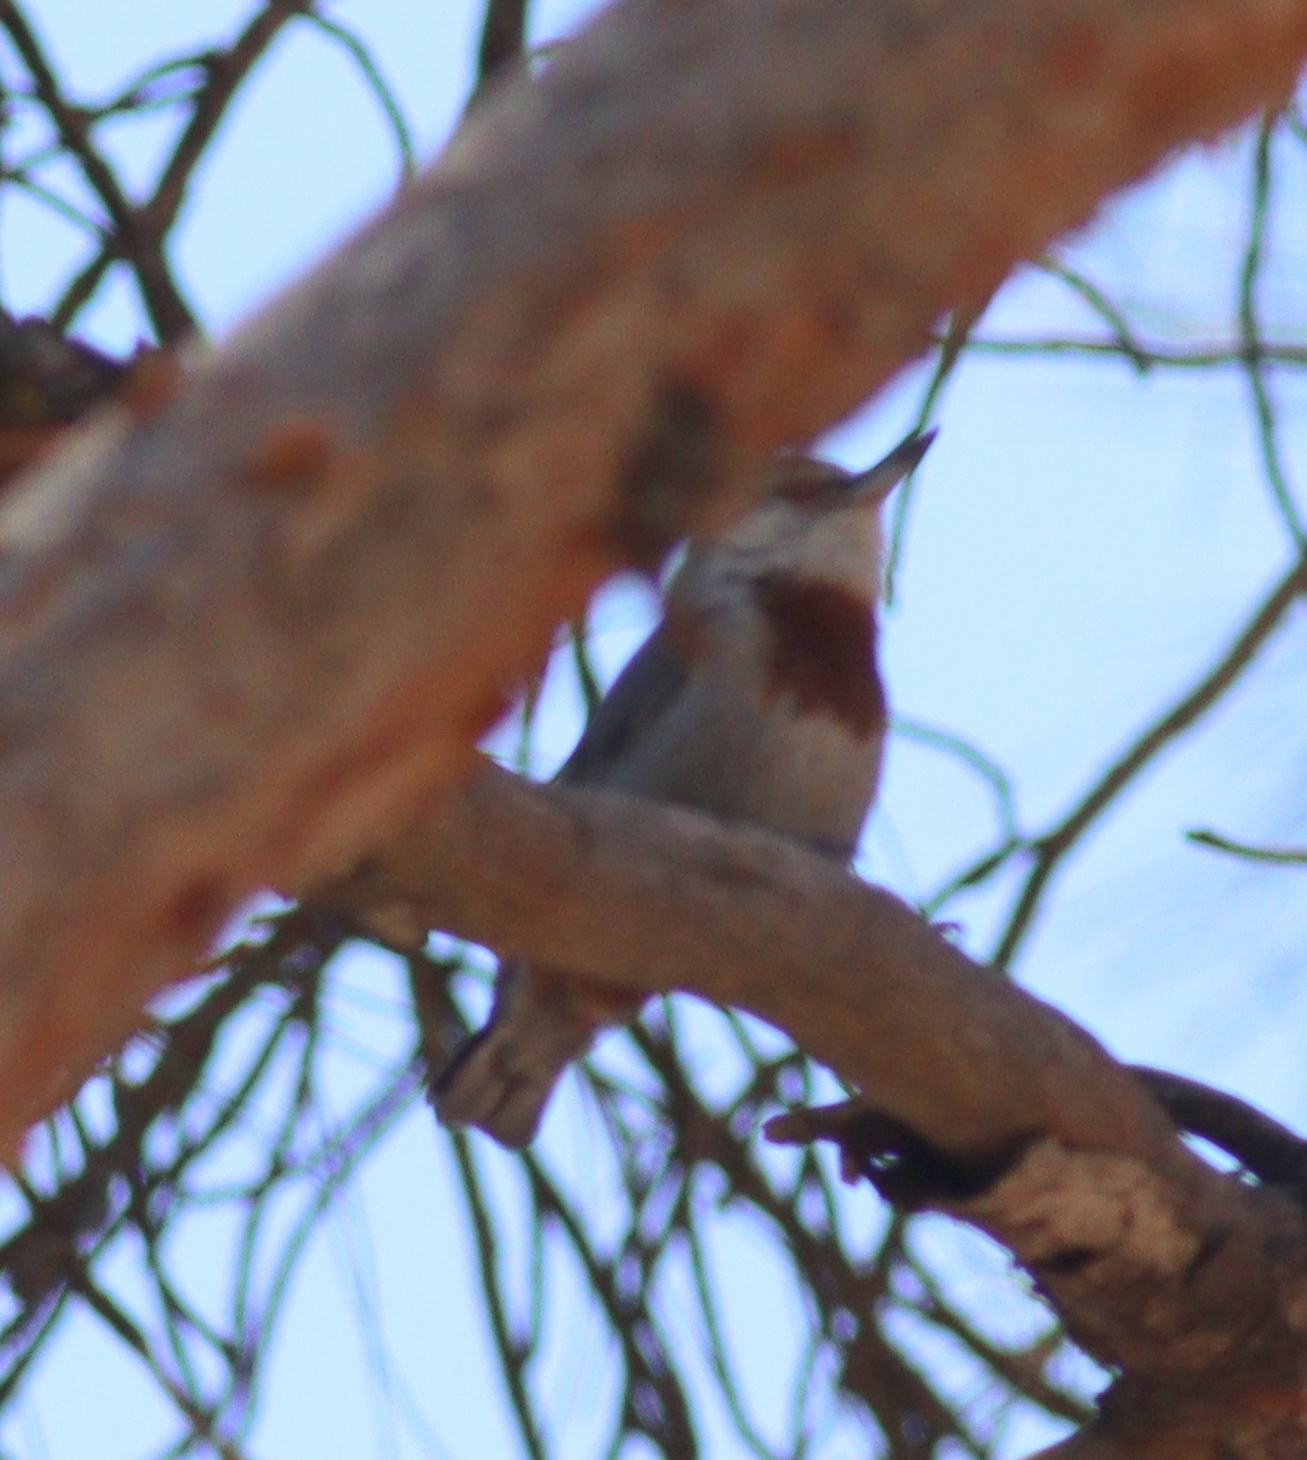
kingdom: Animalia
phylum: Chordata
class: Aves
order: Passeriformes
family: Sittidae
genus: Sitta
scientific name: Sitta krueperi
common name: Krüper's nuthatch
